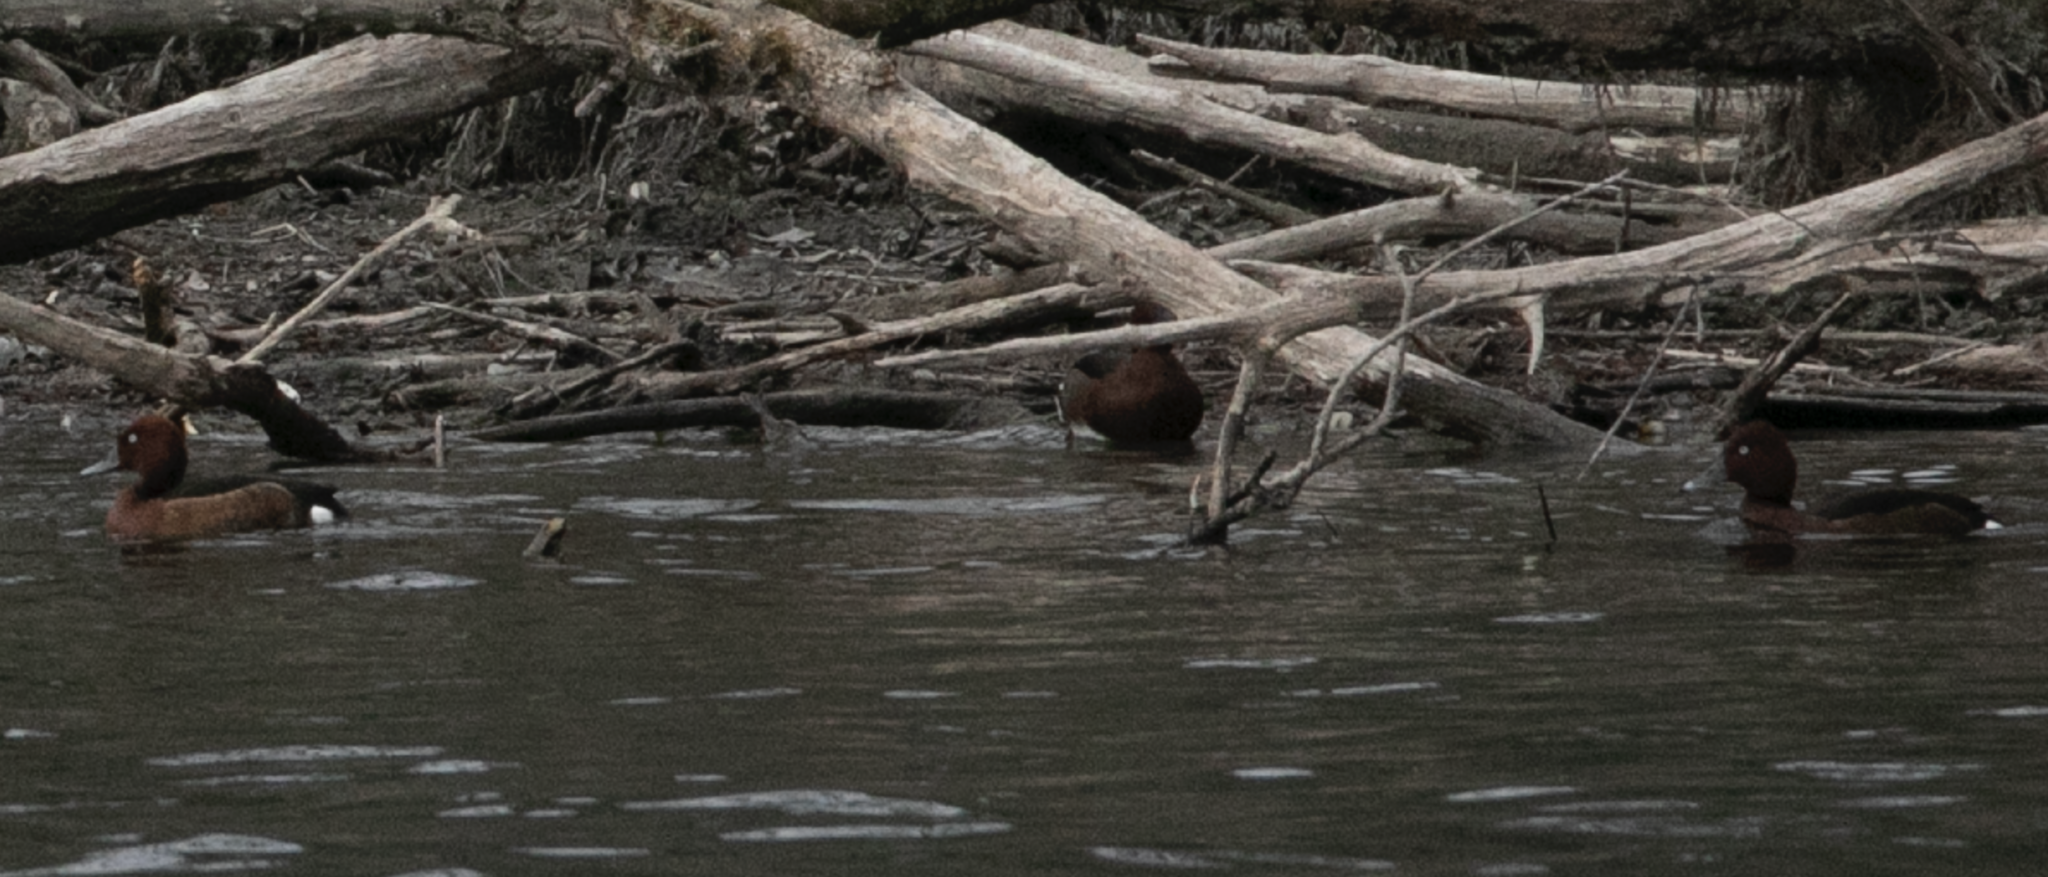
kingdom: Animalia
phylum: Chordata
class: Aves
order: Anseriformes
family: Anatidae
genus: Aythya
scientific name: Aythya nyroca
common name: Ferruginous duck
